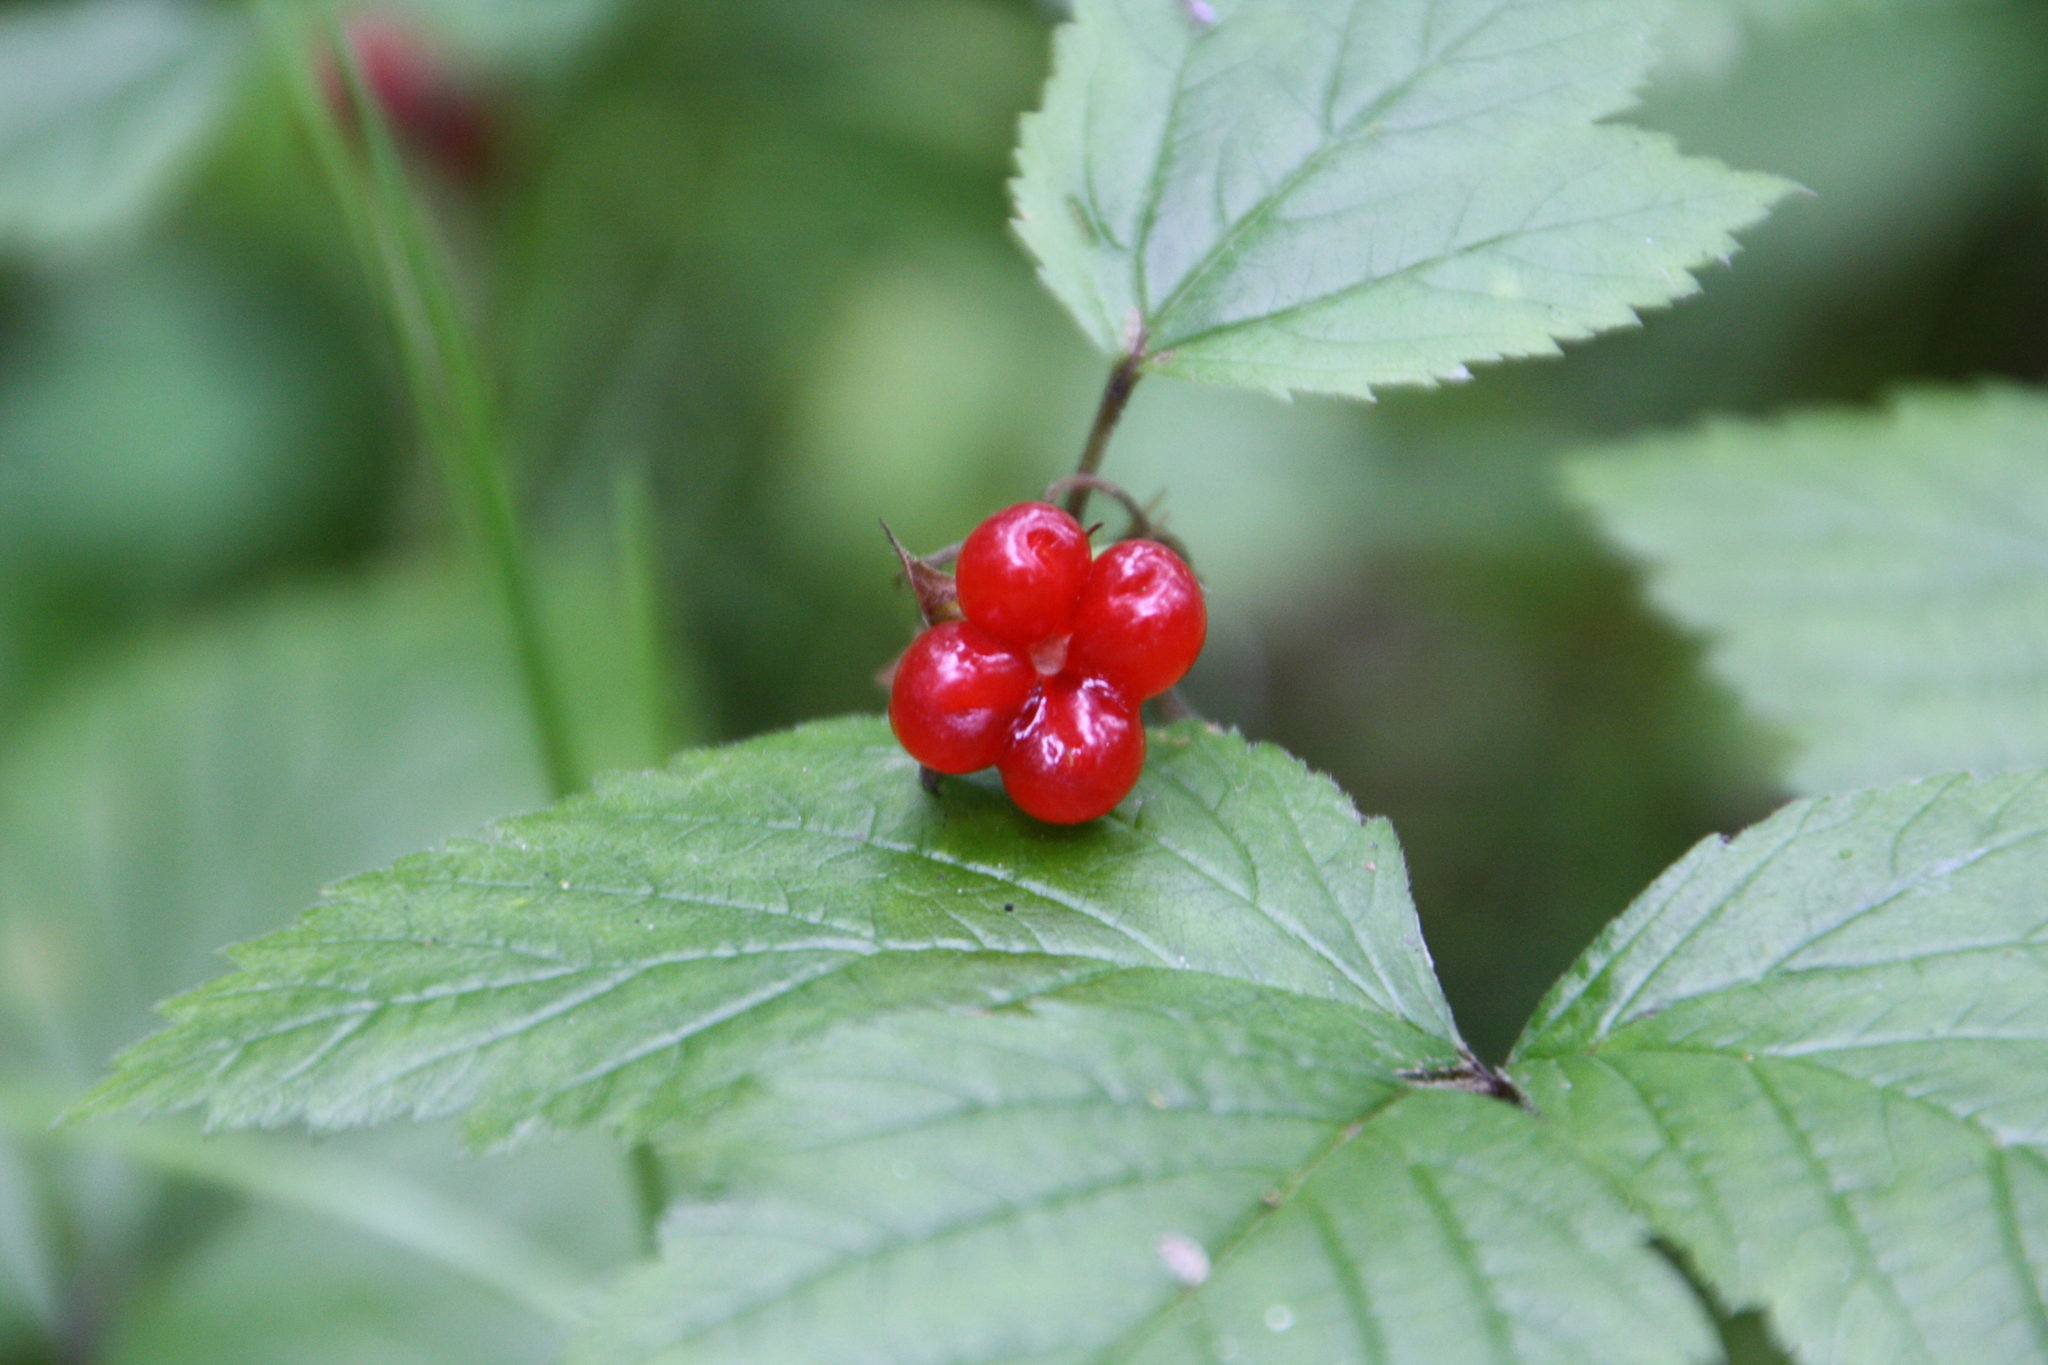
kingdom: Plantae
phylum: Tracheophyta
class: Magnoliopsida
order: Rosales
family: Rosaceae
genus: Rubus
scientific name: Rubus saxatilis
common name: Stone bramble
